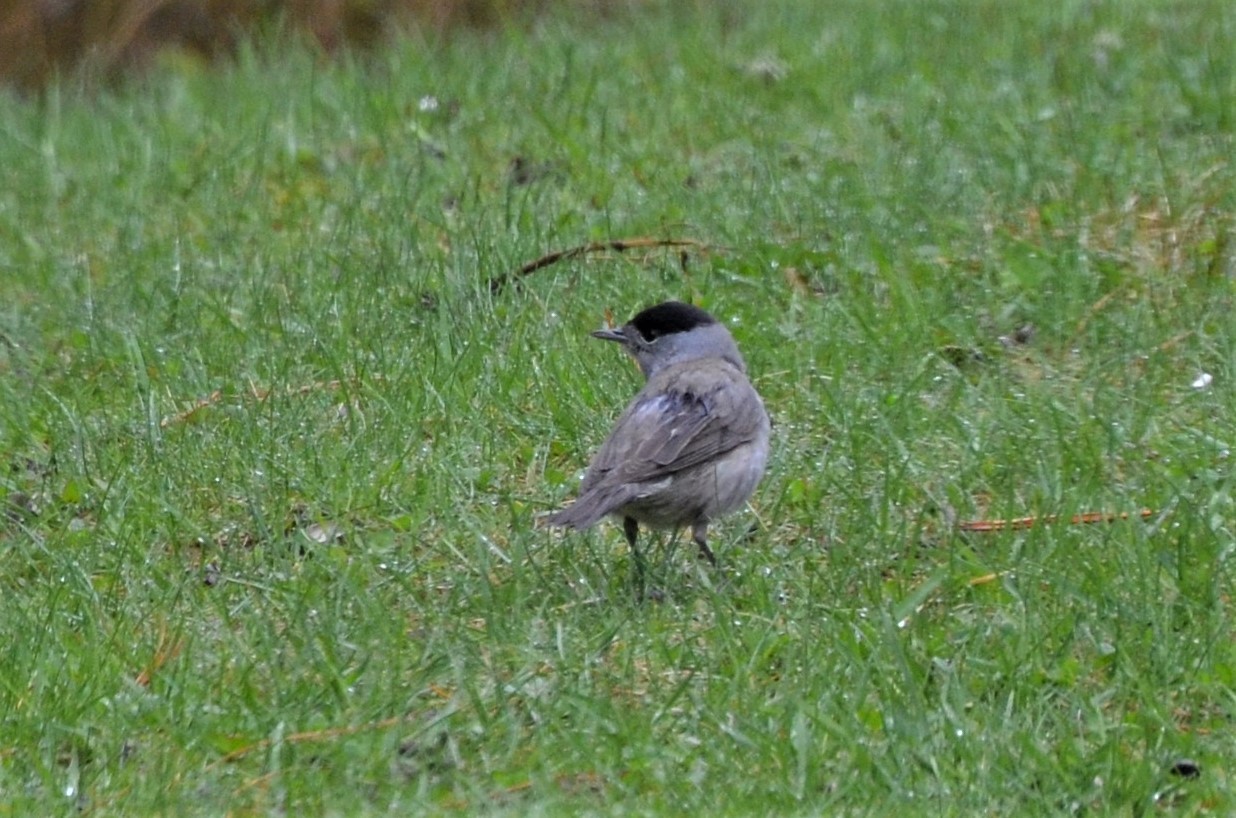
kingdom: Animalia
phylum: Chordata
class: Aves
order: Passeriformes
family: Sylviidae
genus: Sylvia
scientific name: Sylvia atricapilla
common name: Eurasian blackcap
